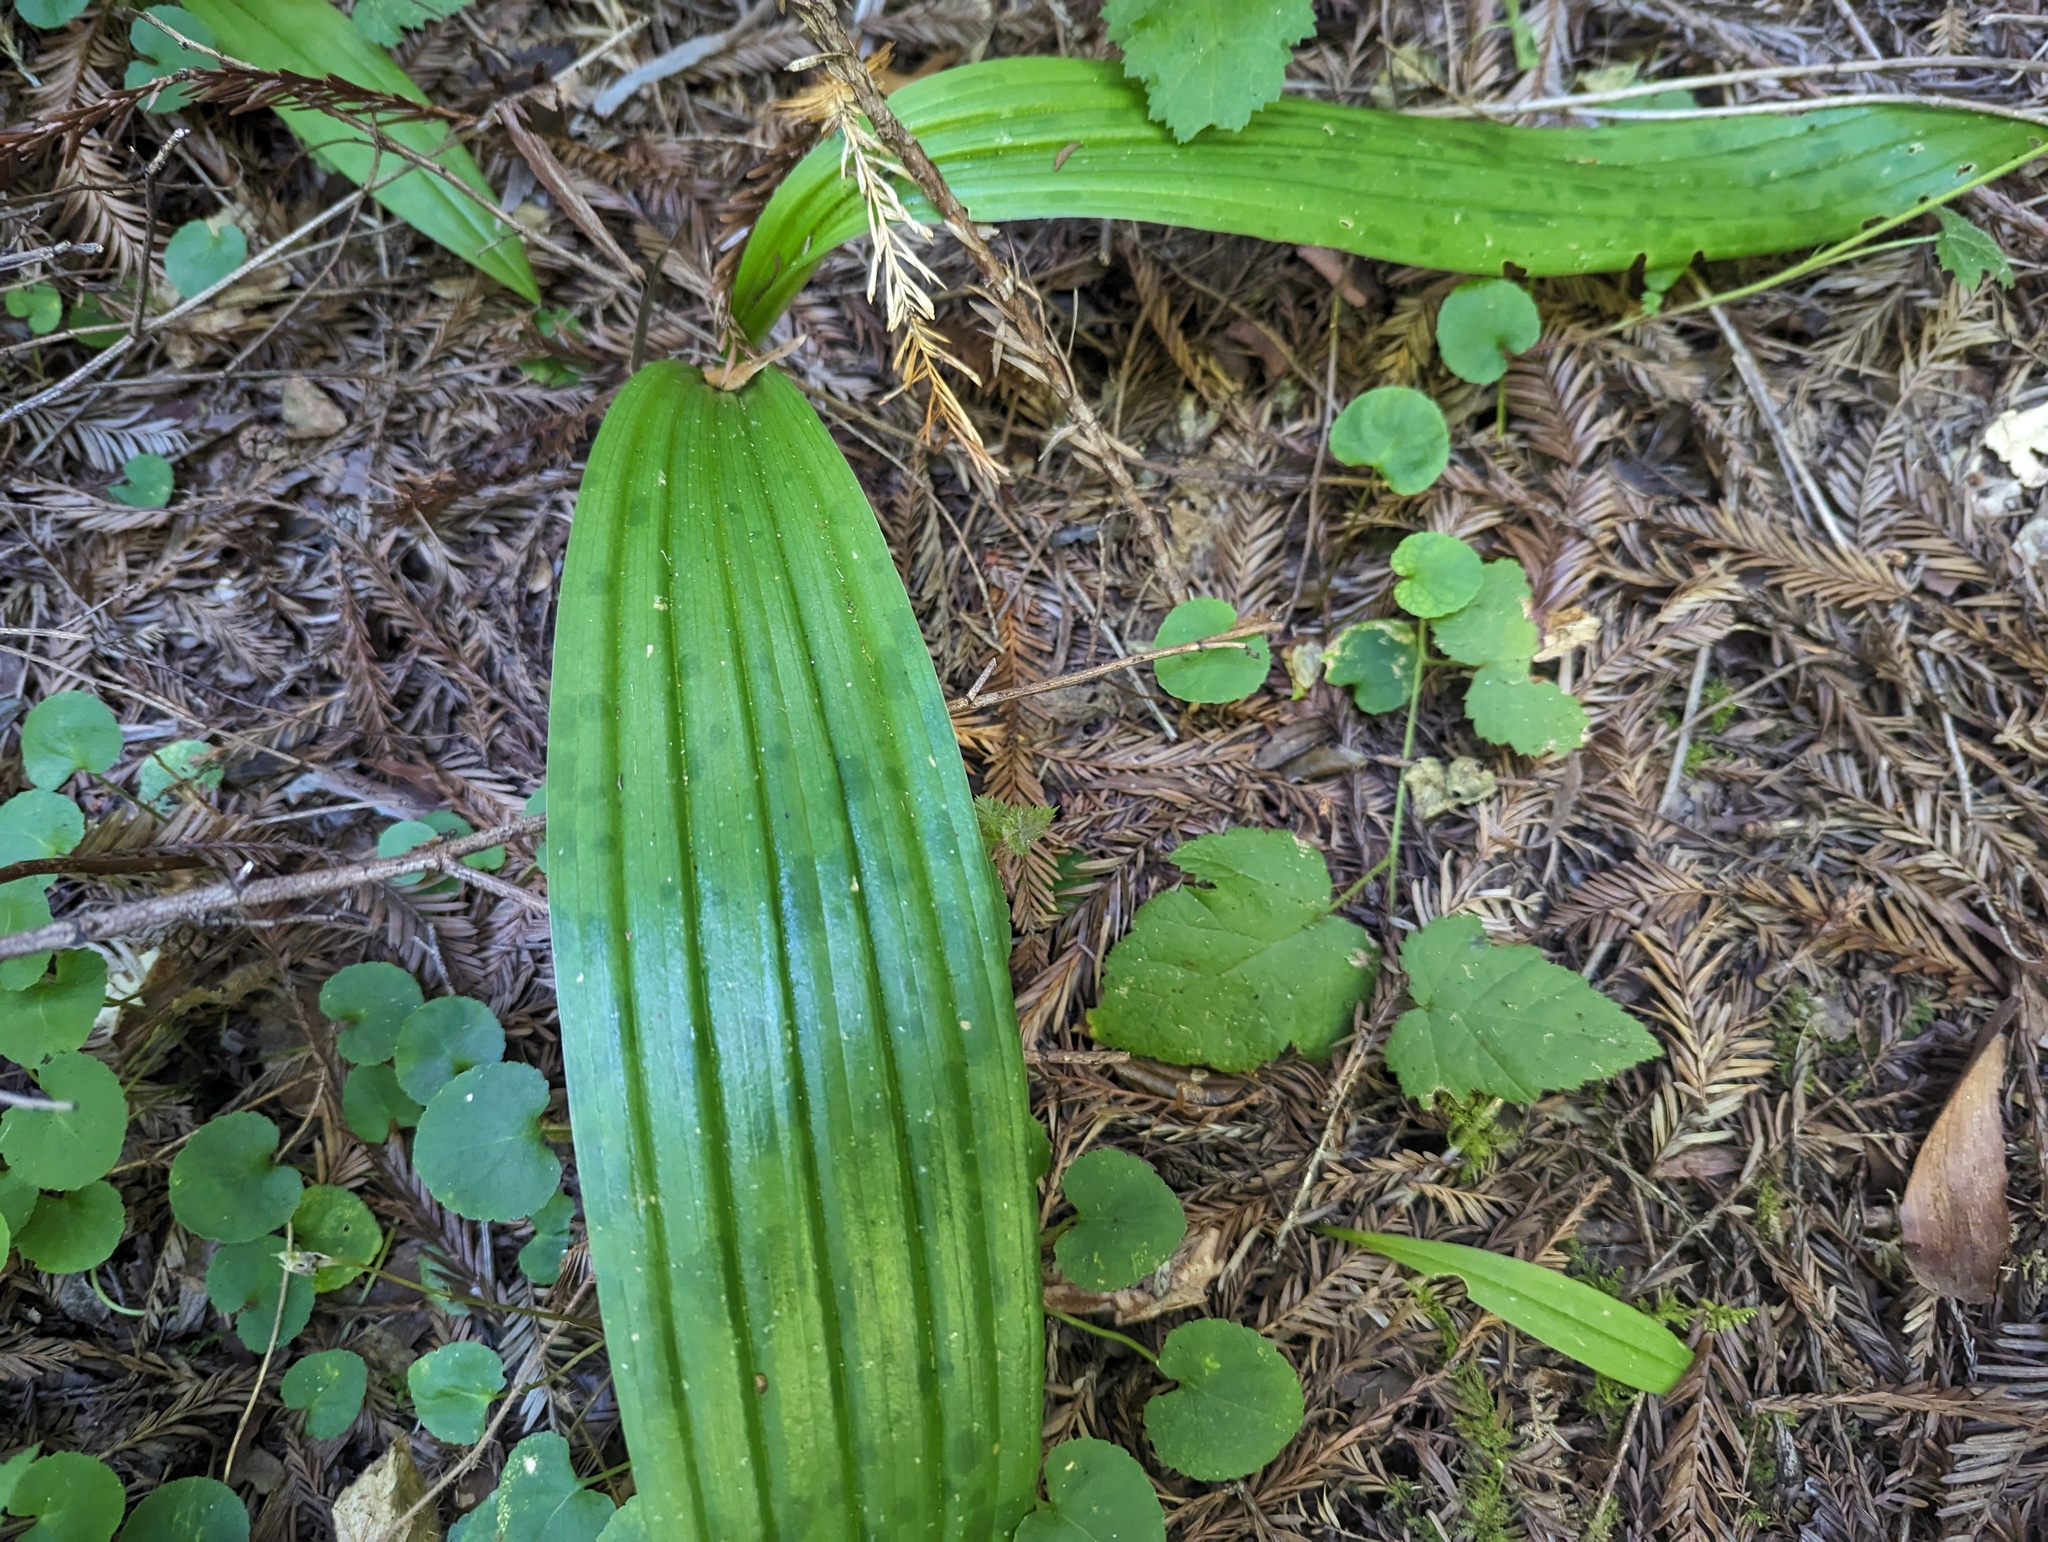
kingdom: Plantae
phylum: Tracheophyta
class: Liliopsida
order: Liliales
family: Liliaceae
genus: Scoliopus
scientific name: Scoliopus bigelovii
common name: Foetid adder's-tongue
